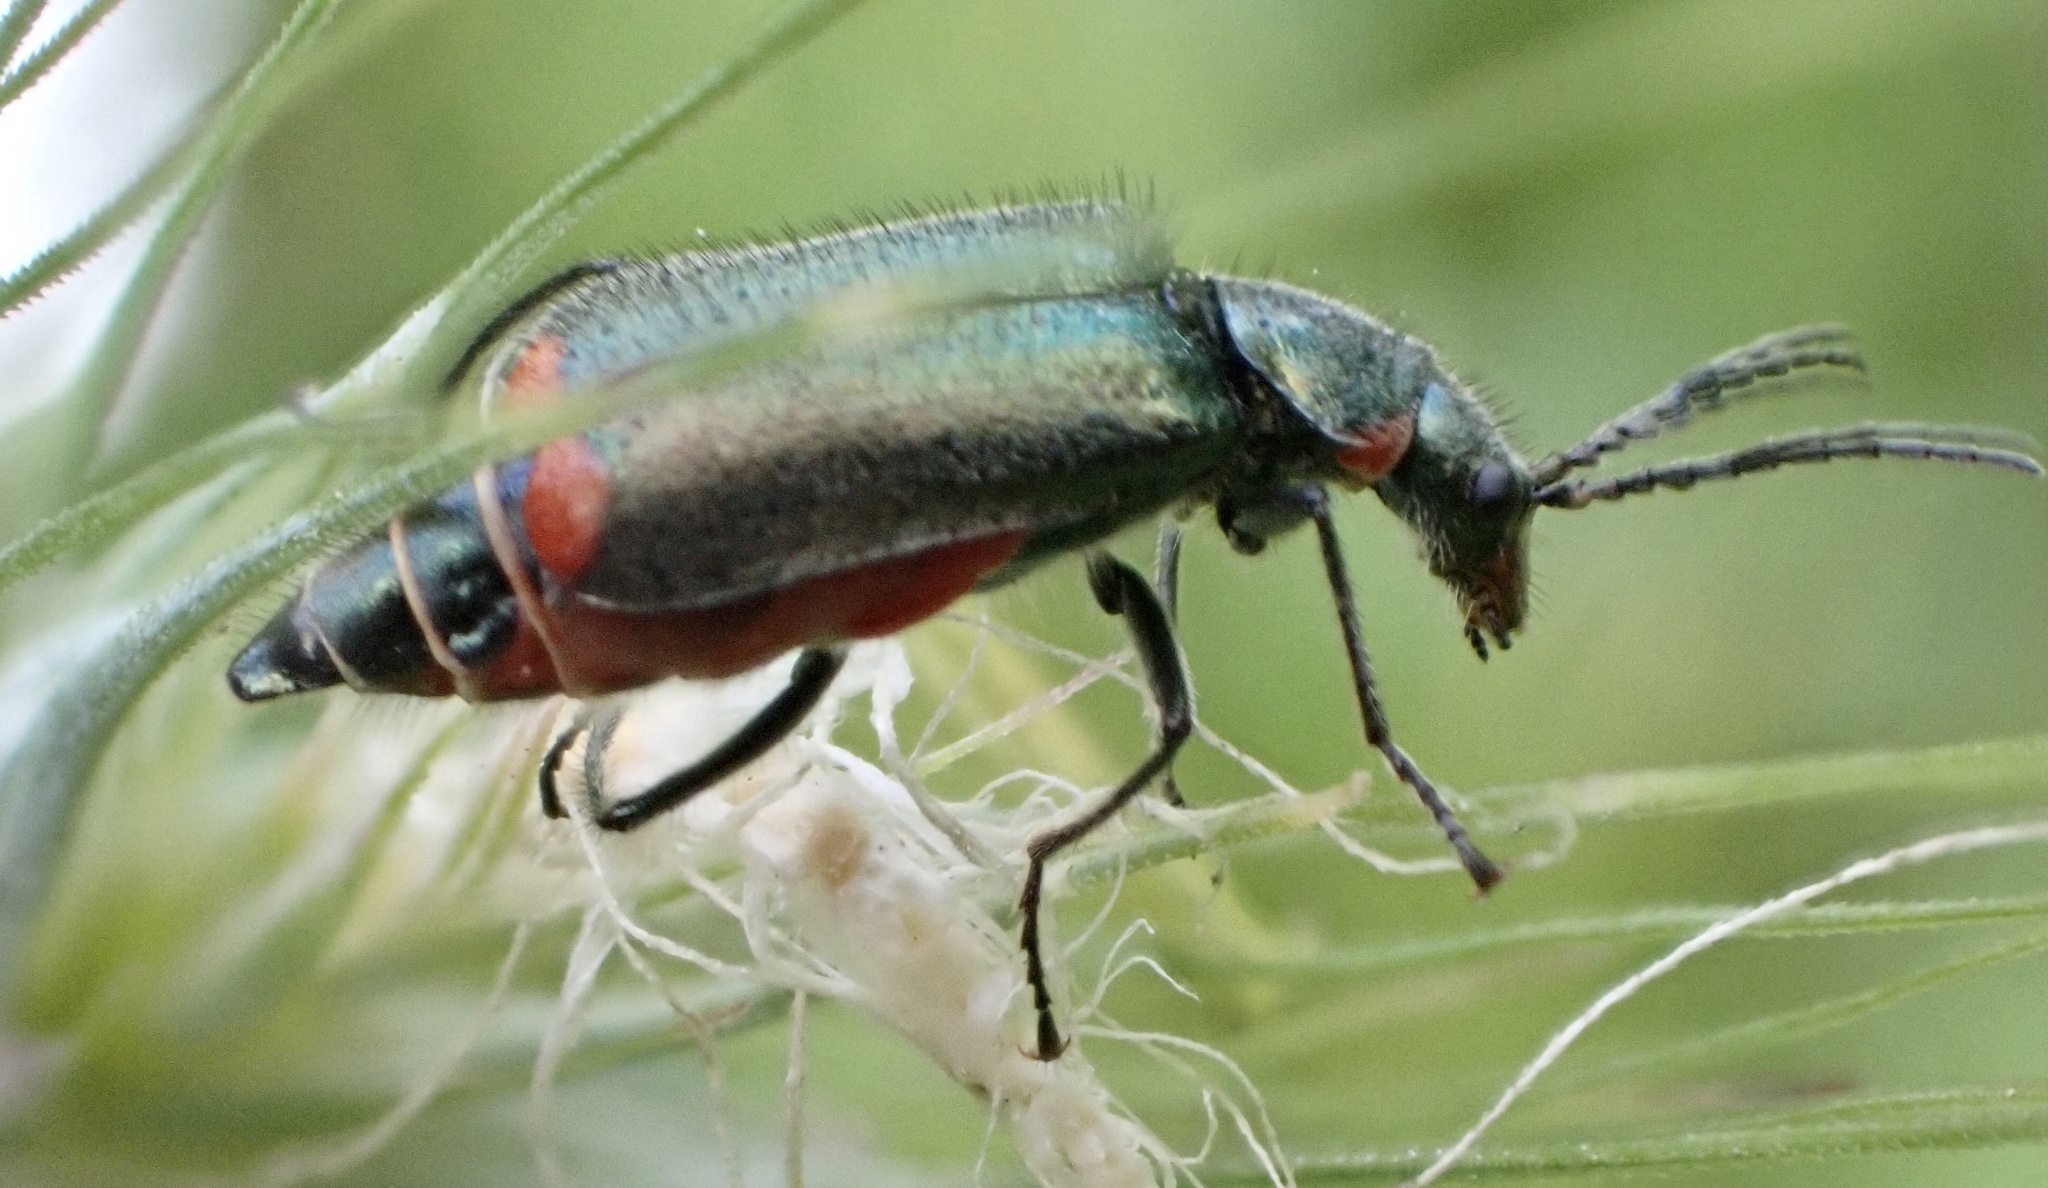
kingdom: Animalia
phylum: Arthropoda
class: Insecta
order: Coleoptera
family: Melyridae
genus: Malachius
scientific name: Malachius bipustulatus
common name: Malachite beetle
